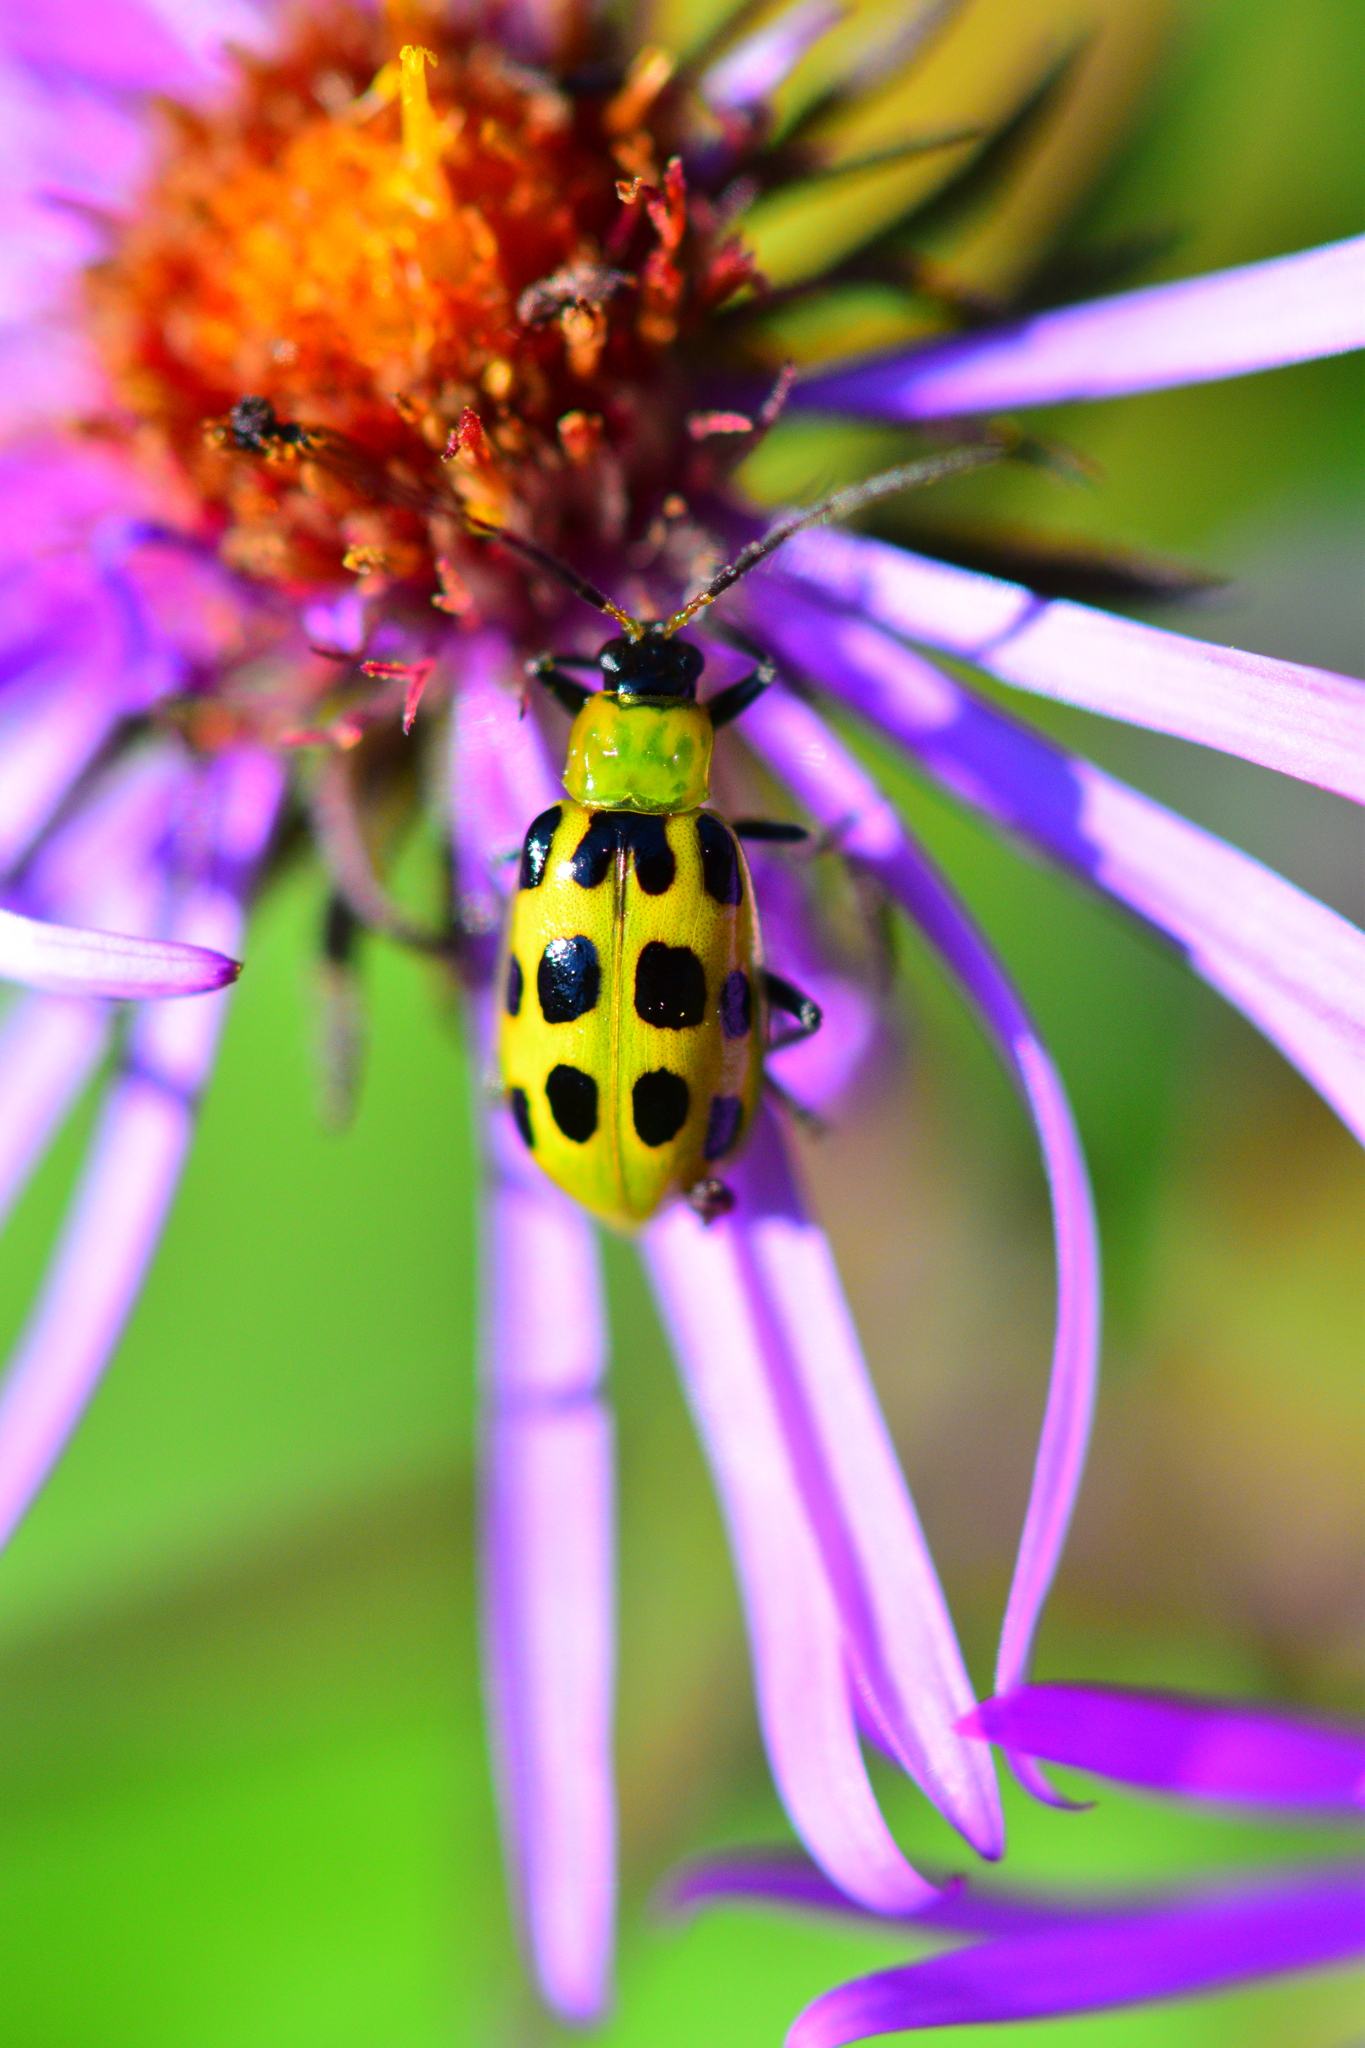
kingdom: Animalia
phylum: Arthropoda
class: Insecta
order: Coleoptera
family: Chrysomelidae
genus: Diabrotica
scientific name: Diabrotica undecimpunctata
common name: Spotted cucumber beetle
